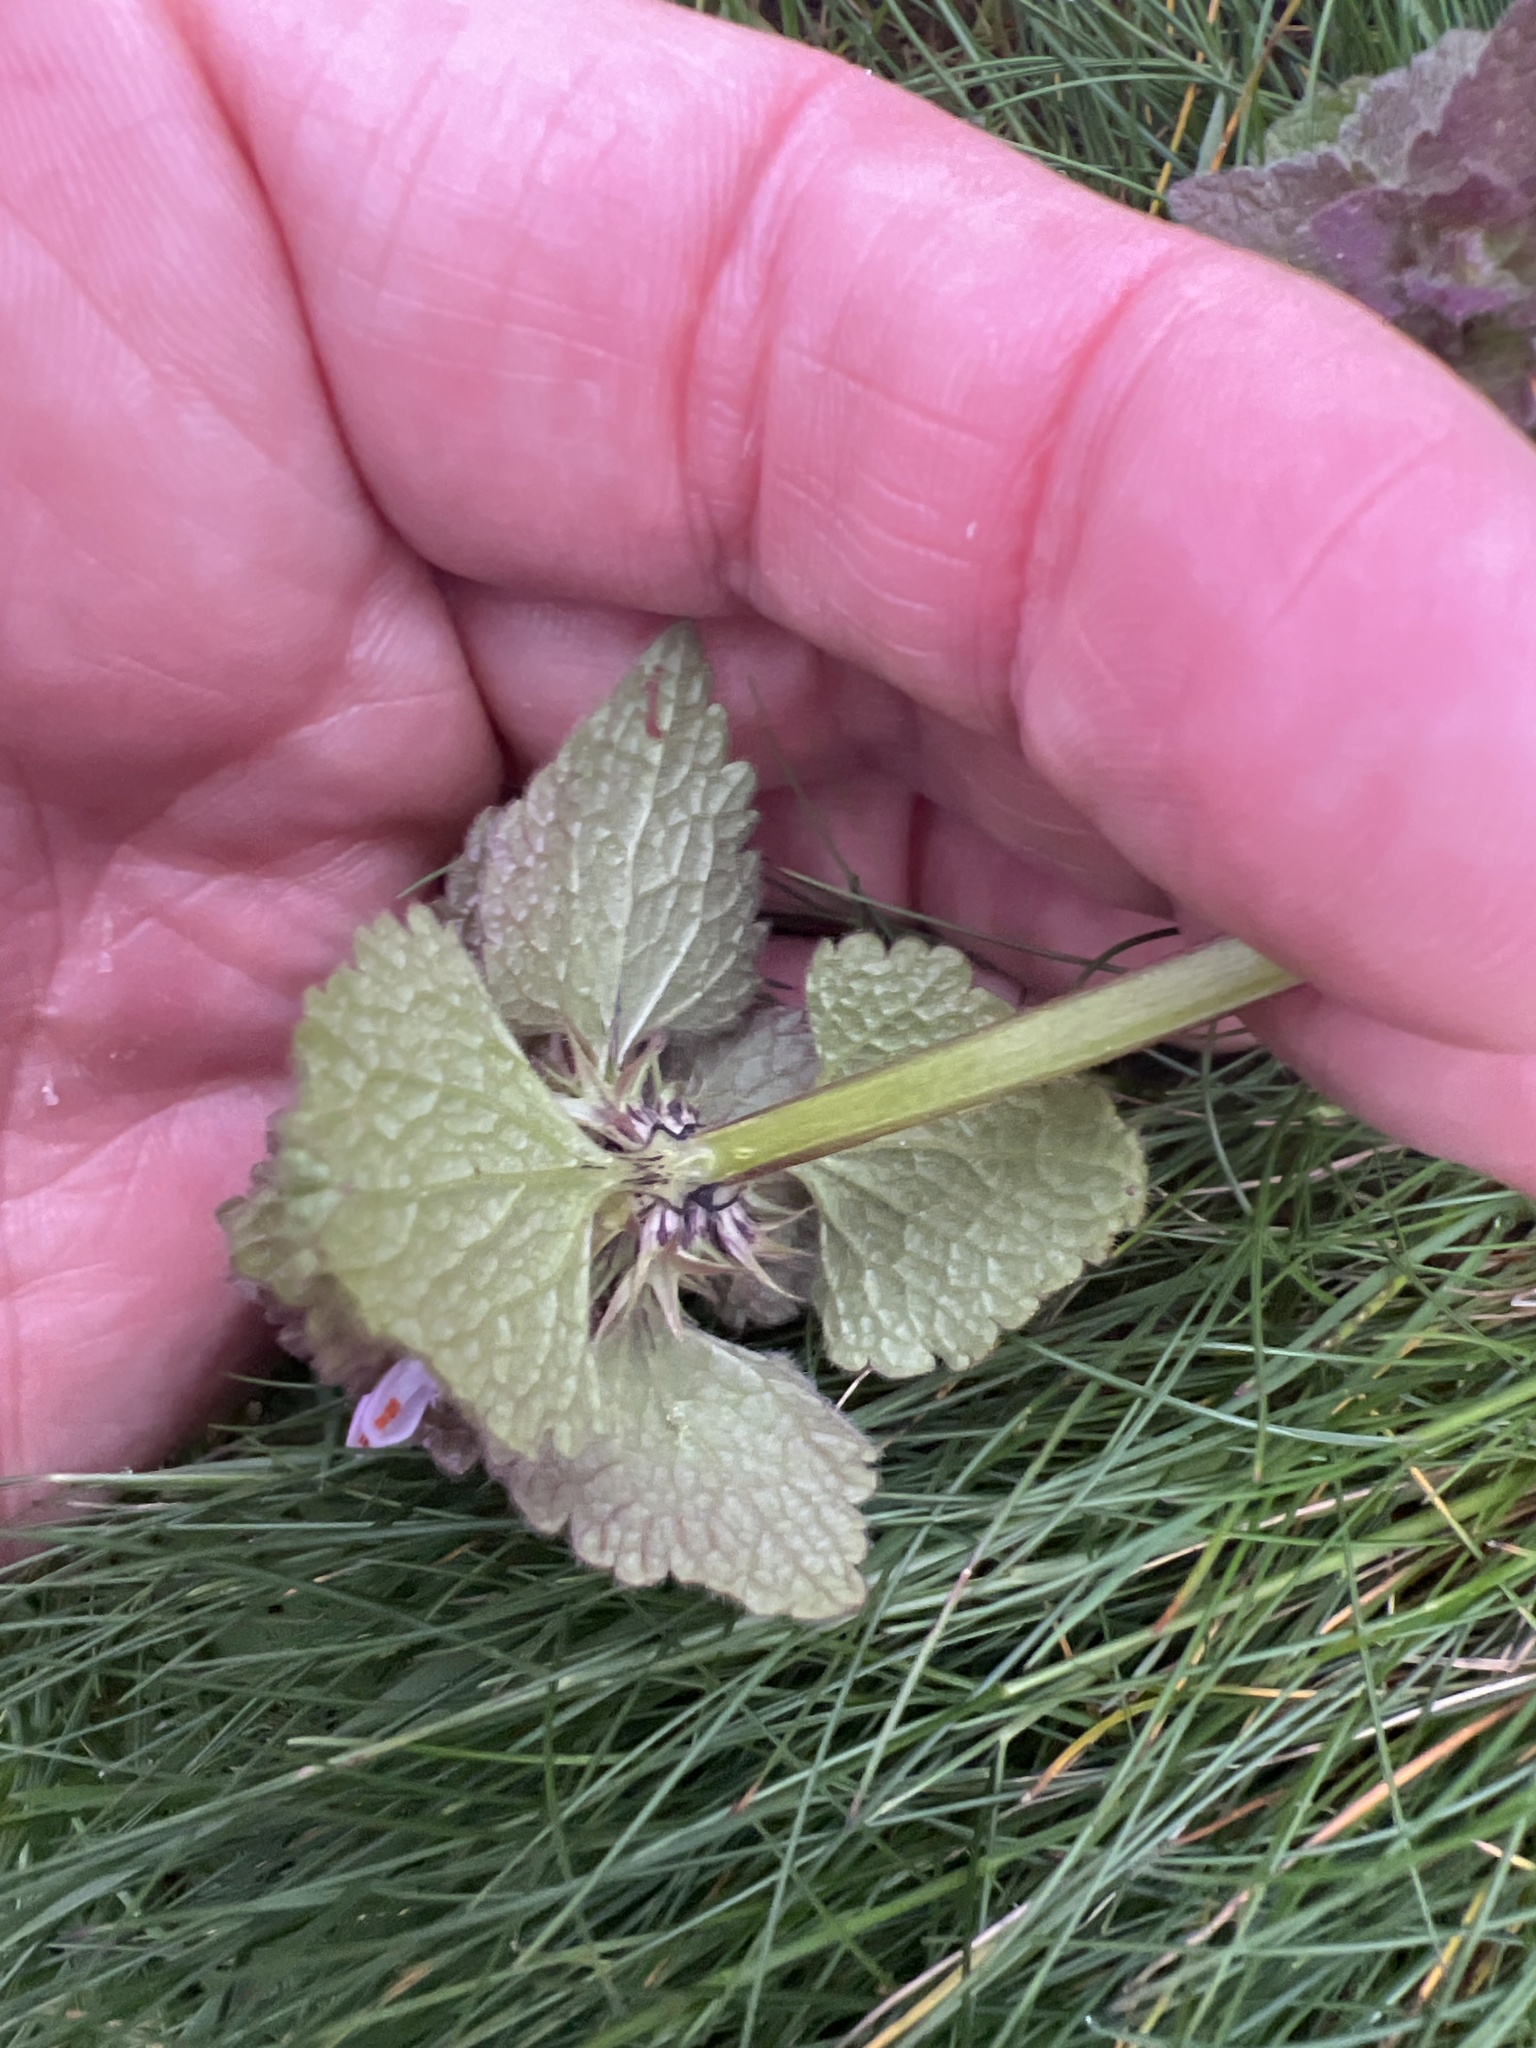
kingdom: Plantae
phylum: Tracheophyta
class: Magnoliopsida
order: Lamiales
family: Lamiaceae
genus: Lamium
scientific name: Lamium purpureum
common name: Red dead-nettle
